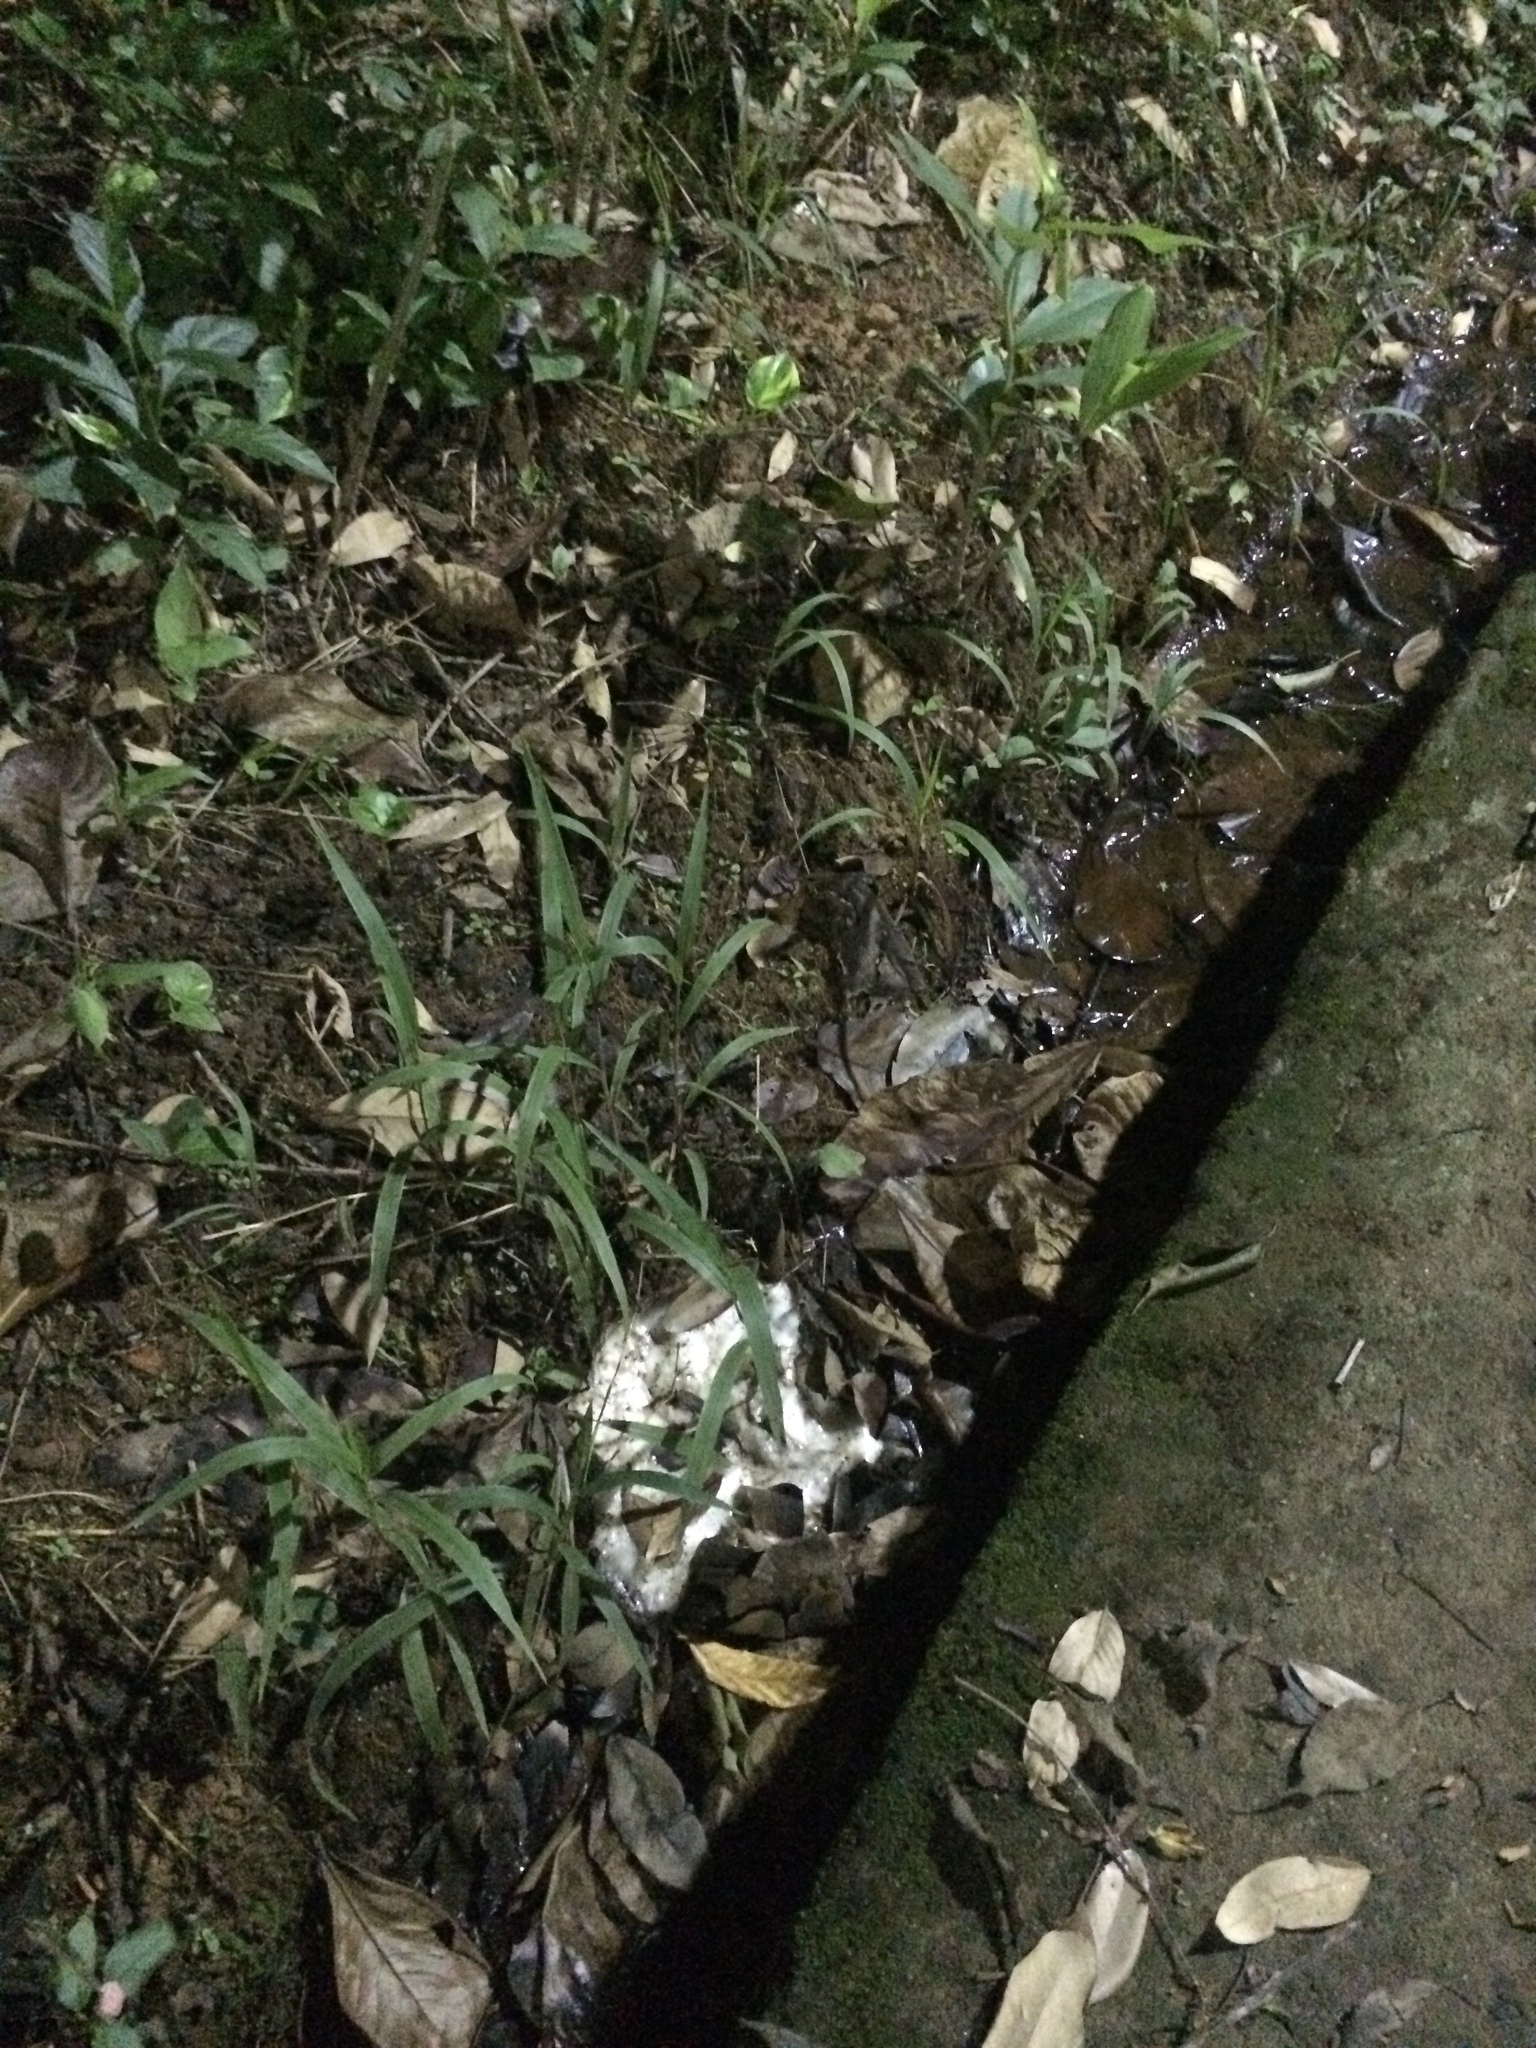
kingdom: Animalia
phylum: Chordata
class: Amphibia
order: Anura
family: Leptodactylidae
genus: Leptodactylus
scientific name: Leptodactylus vastus
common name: Northeastern pepper frog
